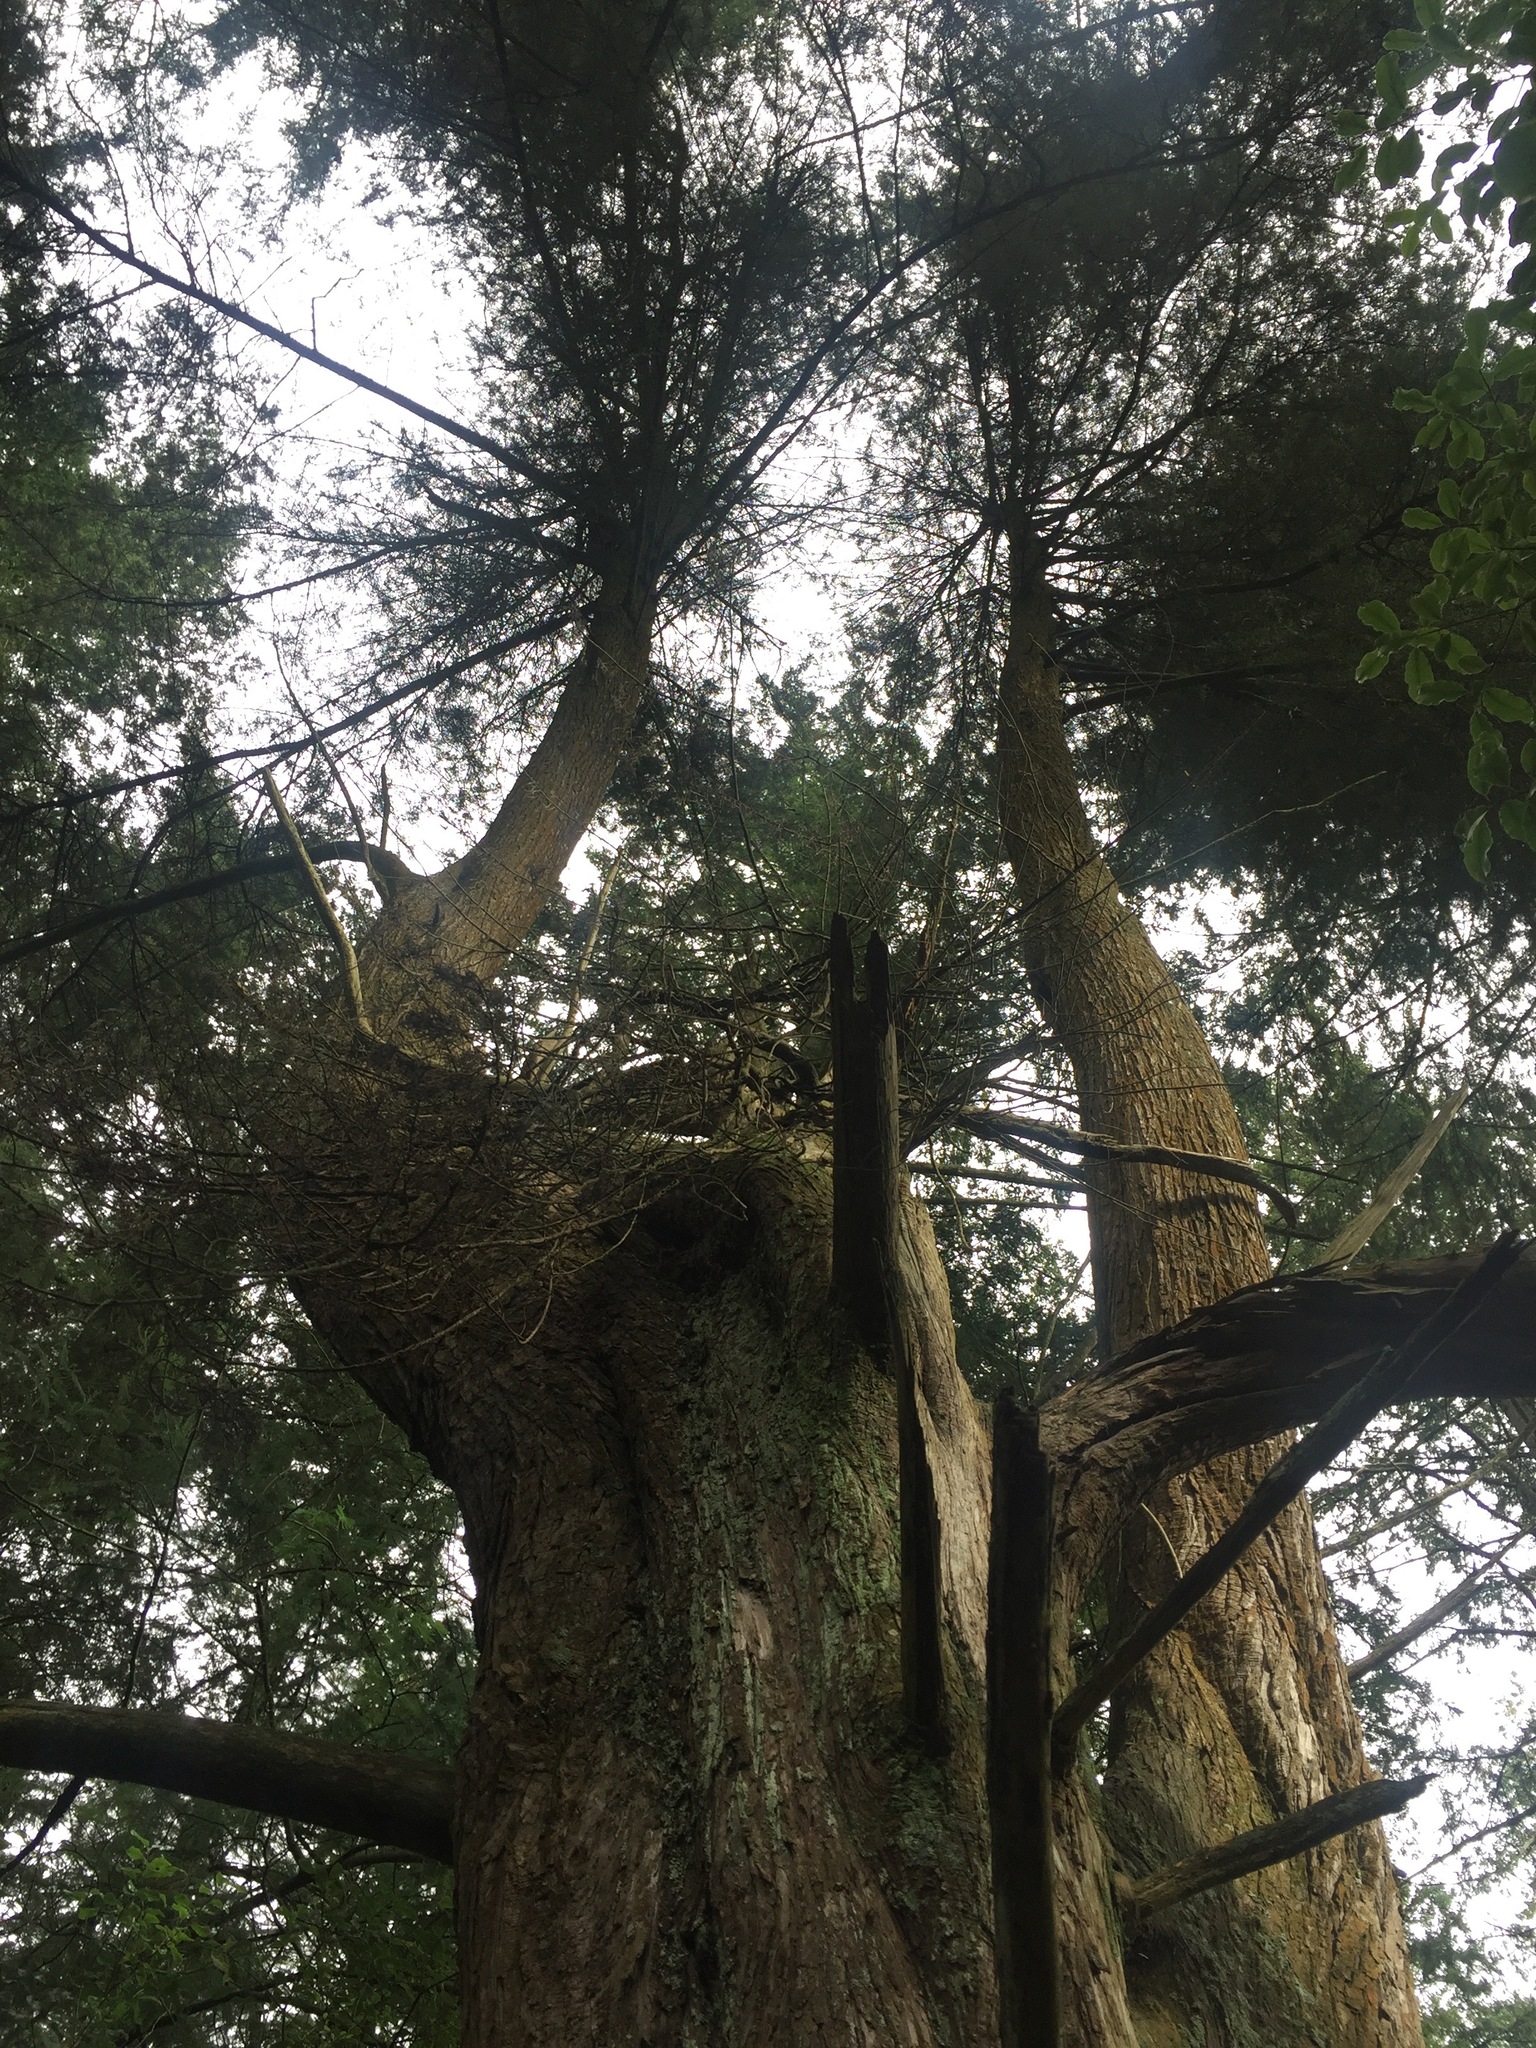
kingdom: Plantae
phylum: Tracheophyta
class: Pinopsida
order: Pinales
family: Cupressaceae
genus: Cupressus
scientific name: Cupressus macrocarpa
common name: Monterey cypress
